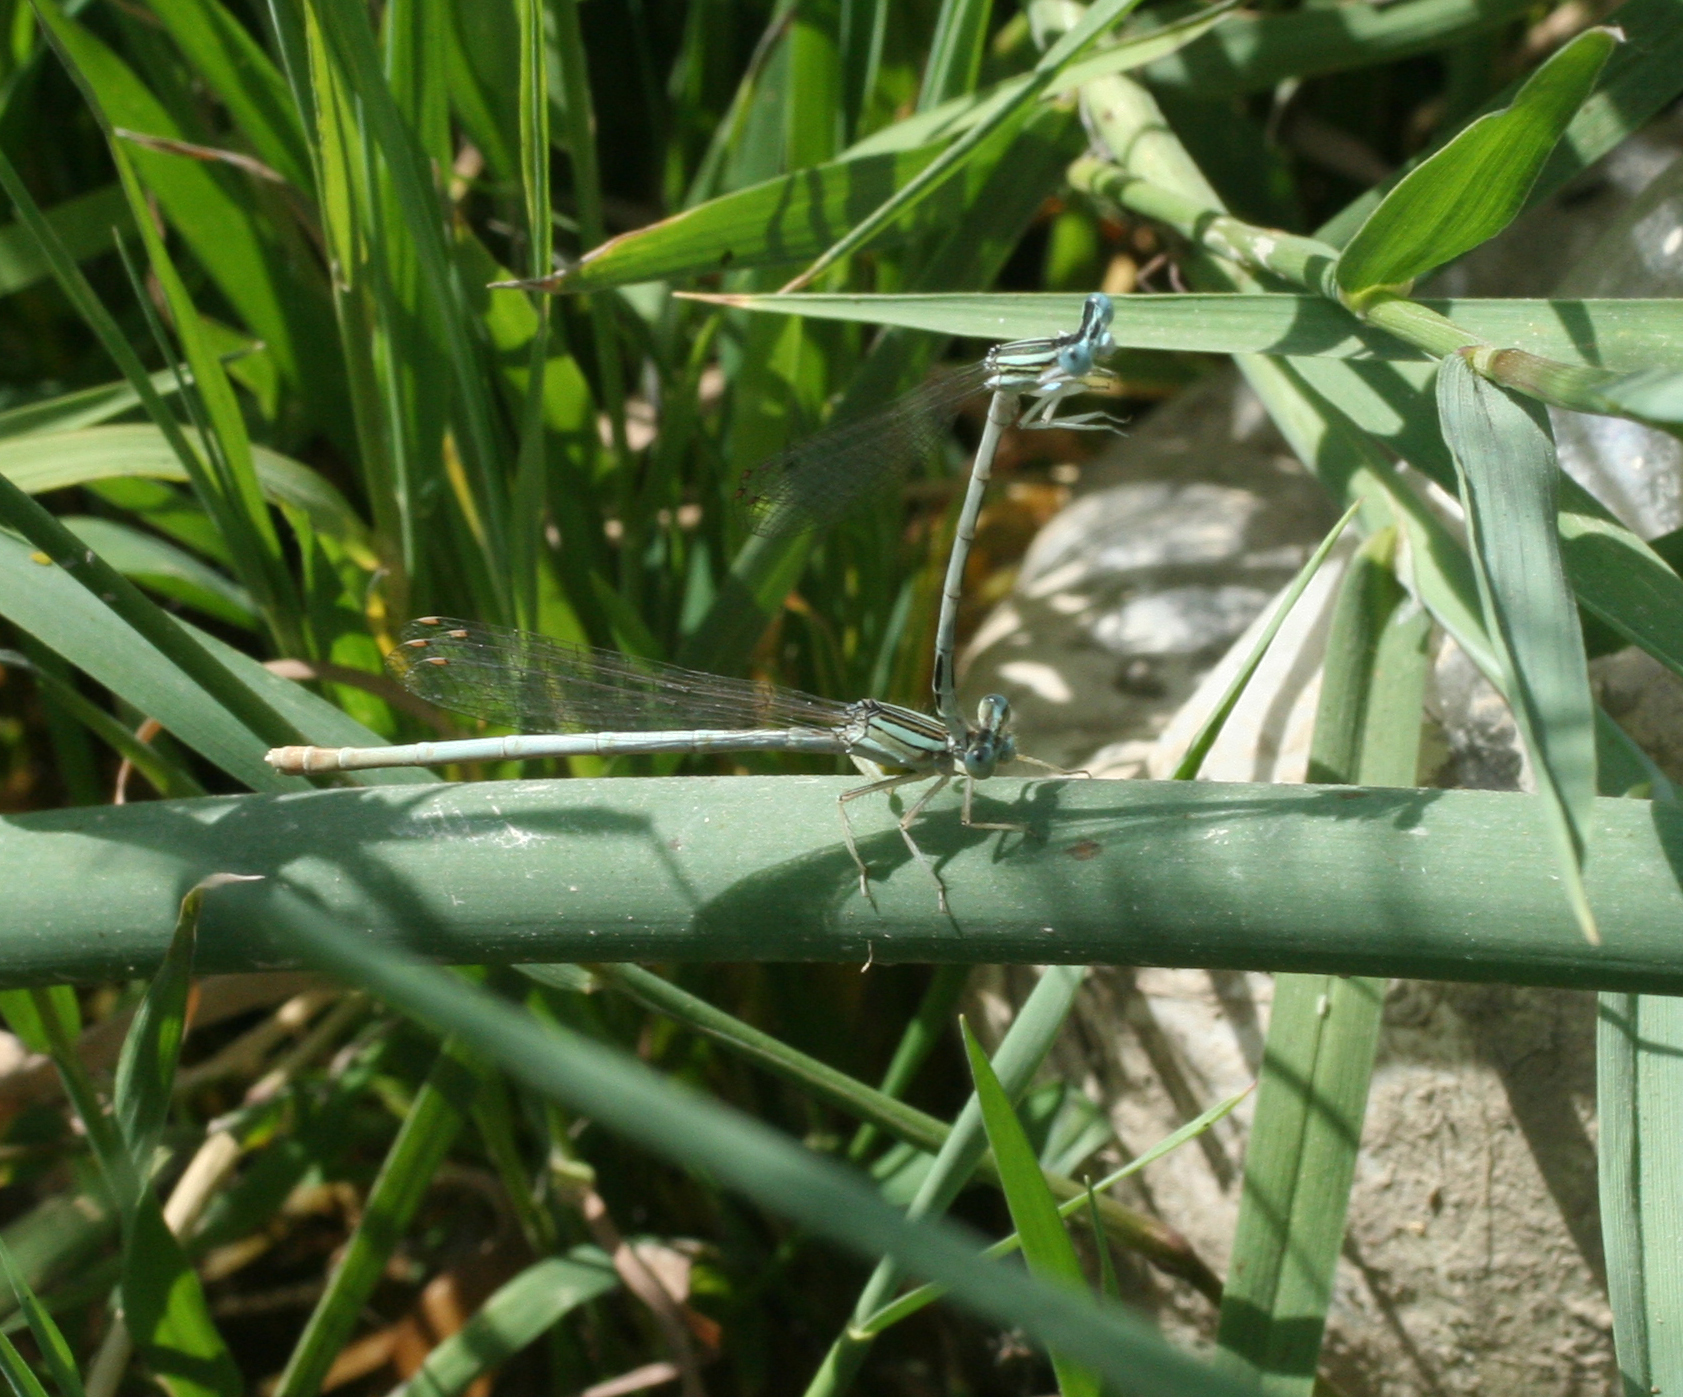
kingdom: Animalia
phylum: Arthropoda
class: Insecta
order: Odonata
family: Platycnemididae
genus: Platycnemis
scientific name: Platycnemis dealbata
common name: Ivory featherleg
